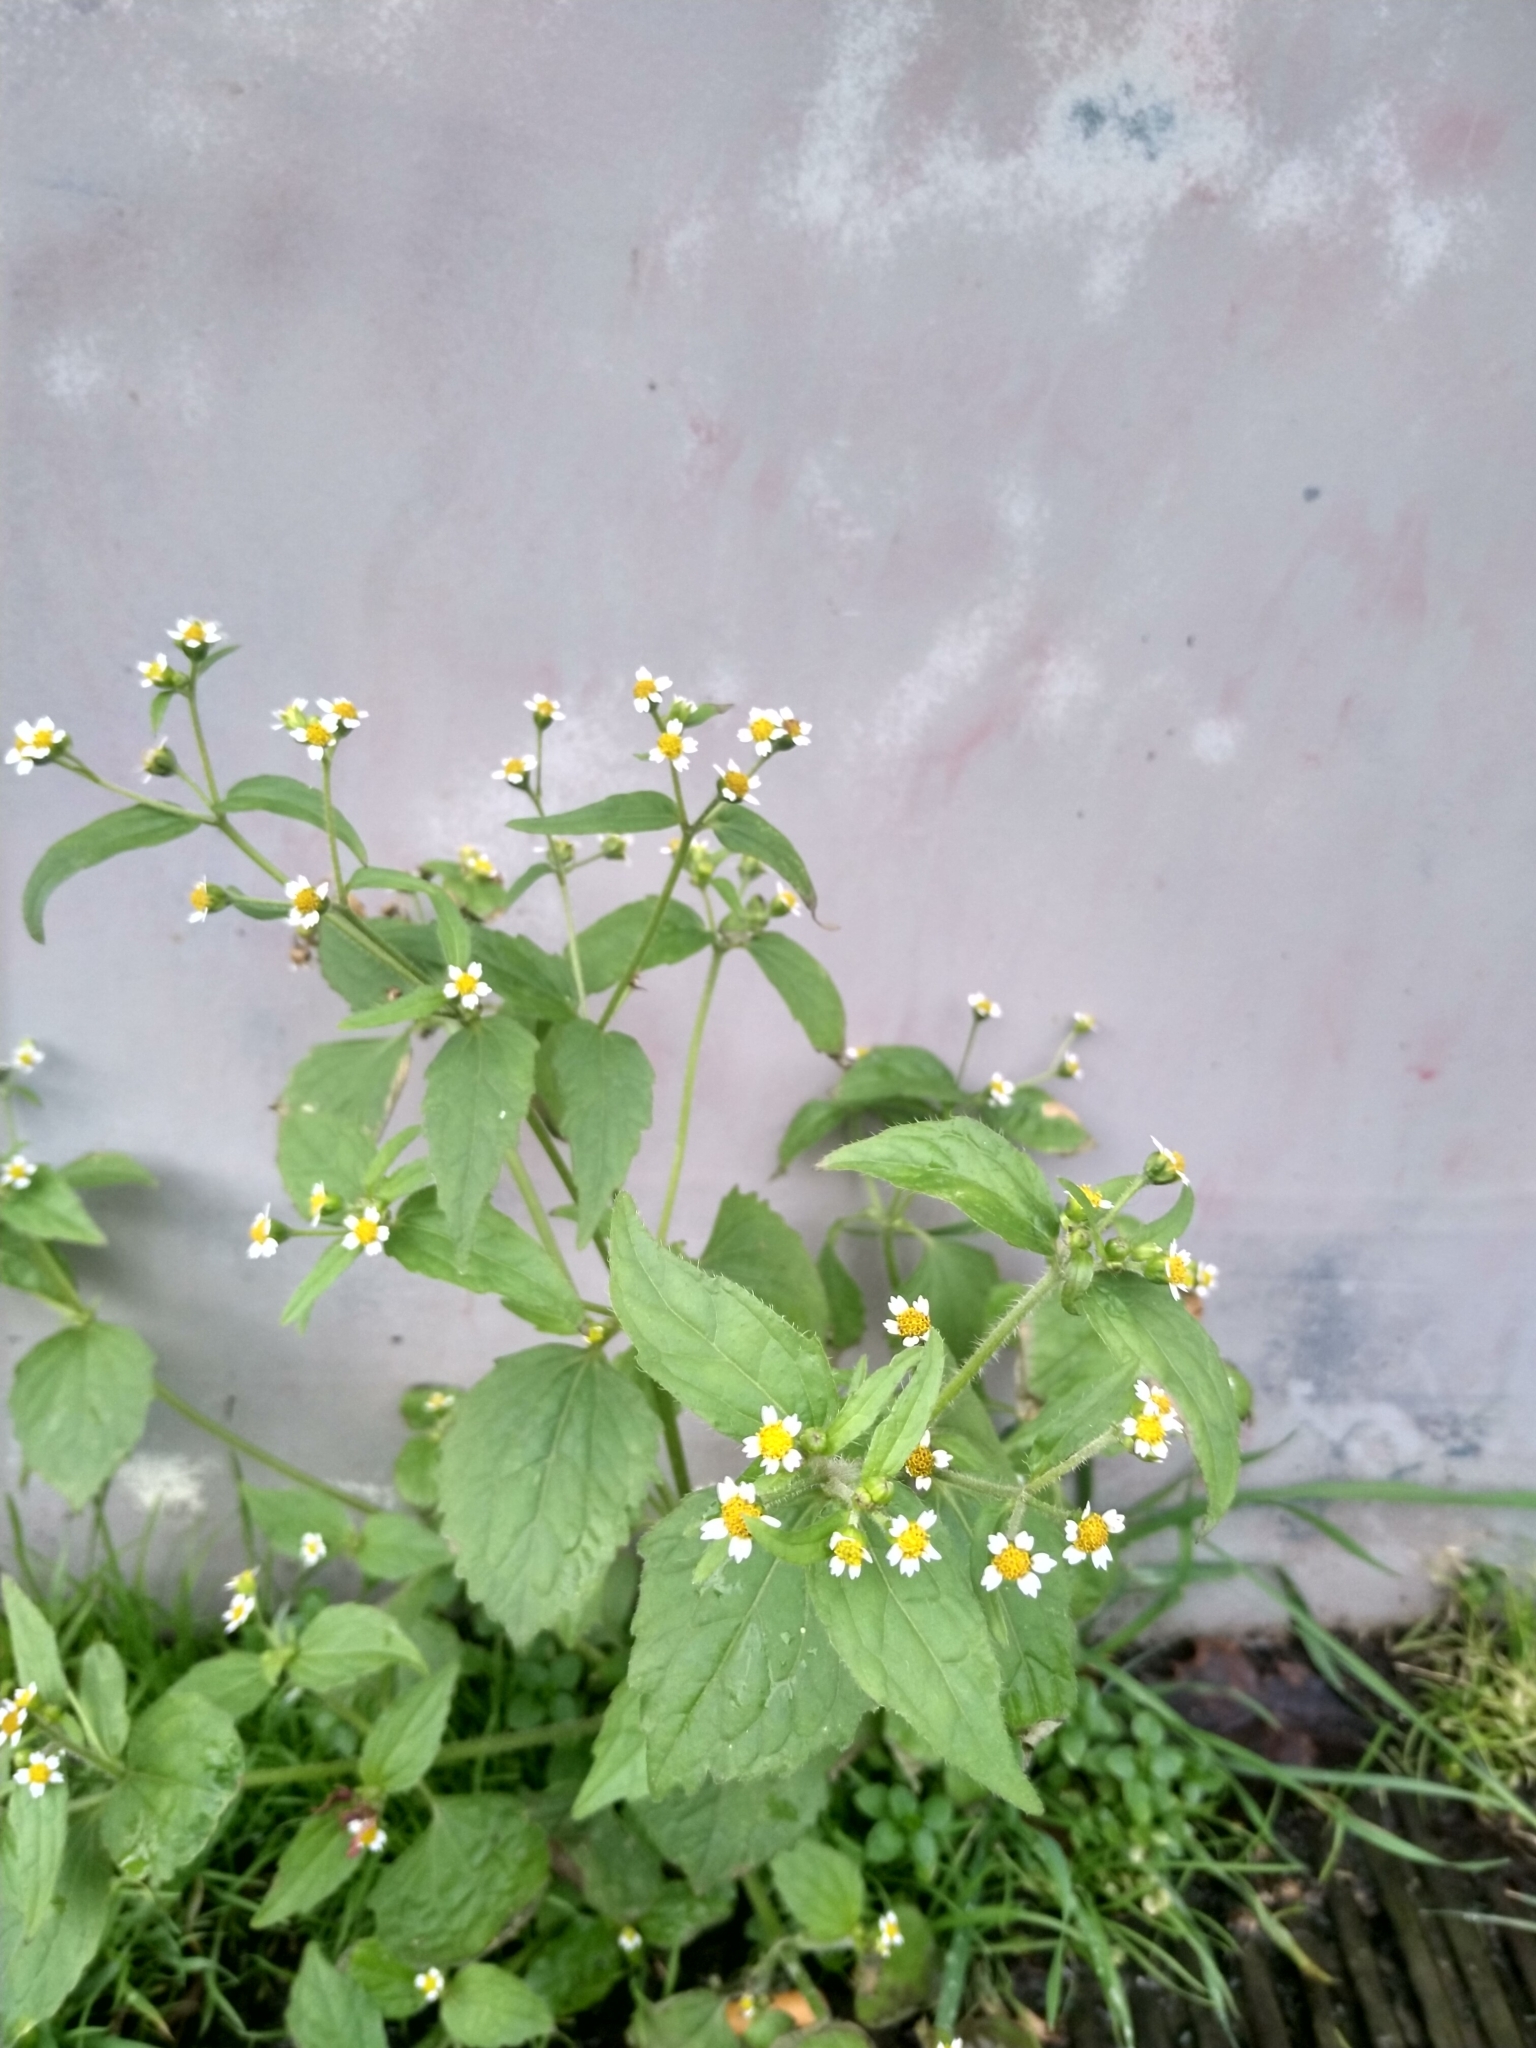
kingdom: Plantae
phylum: Tracheophyta
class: Magnoliopsida
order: Asterales
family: Asteraceae
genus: Galinsoga
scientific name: Galinsoga quadriradiata
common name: Shaggy soldier
